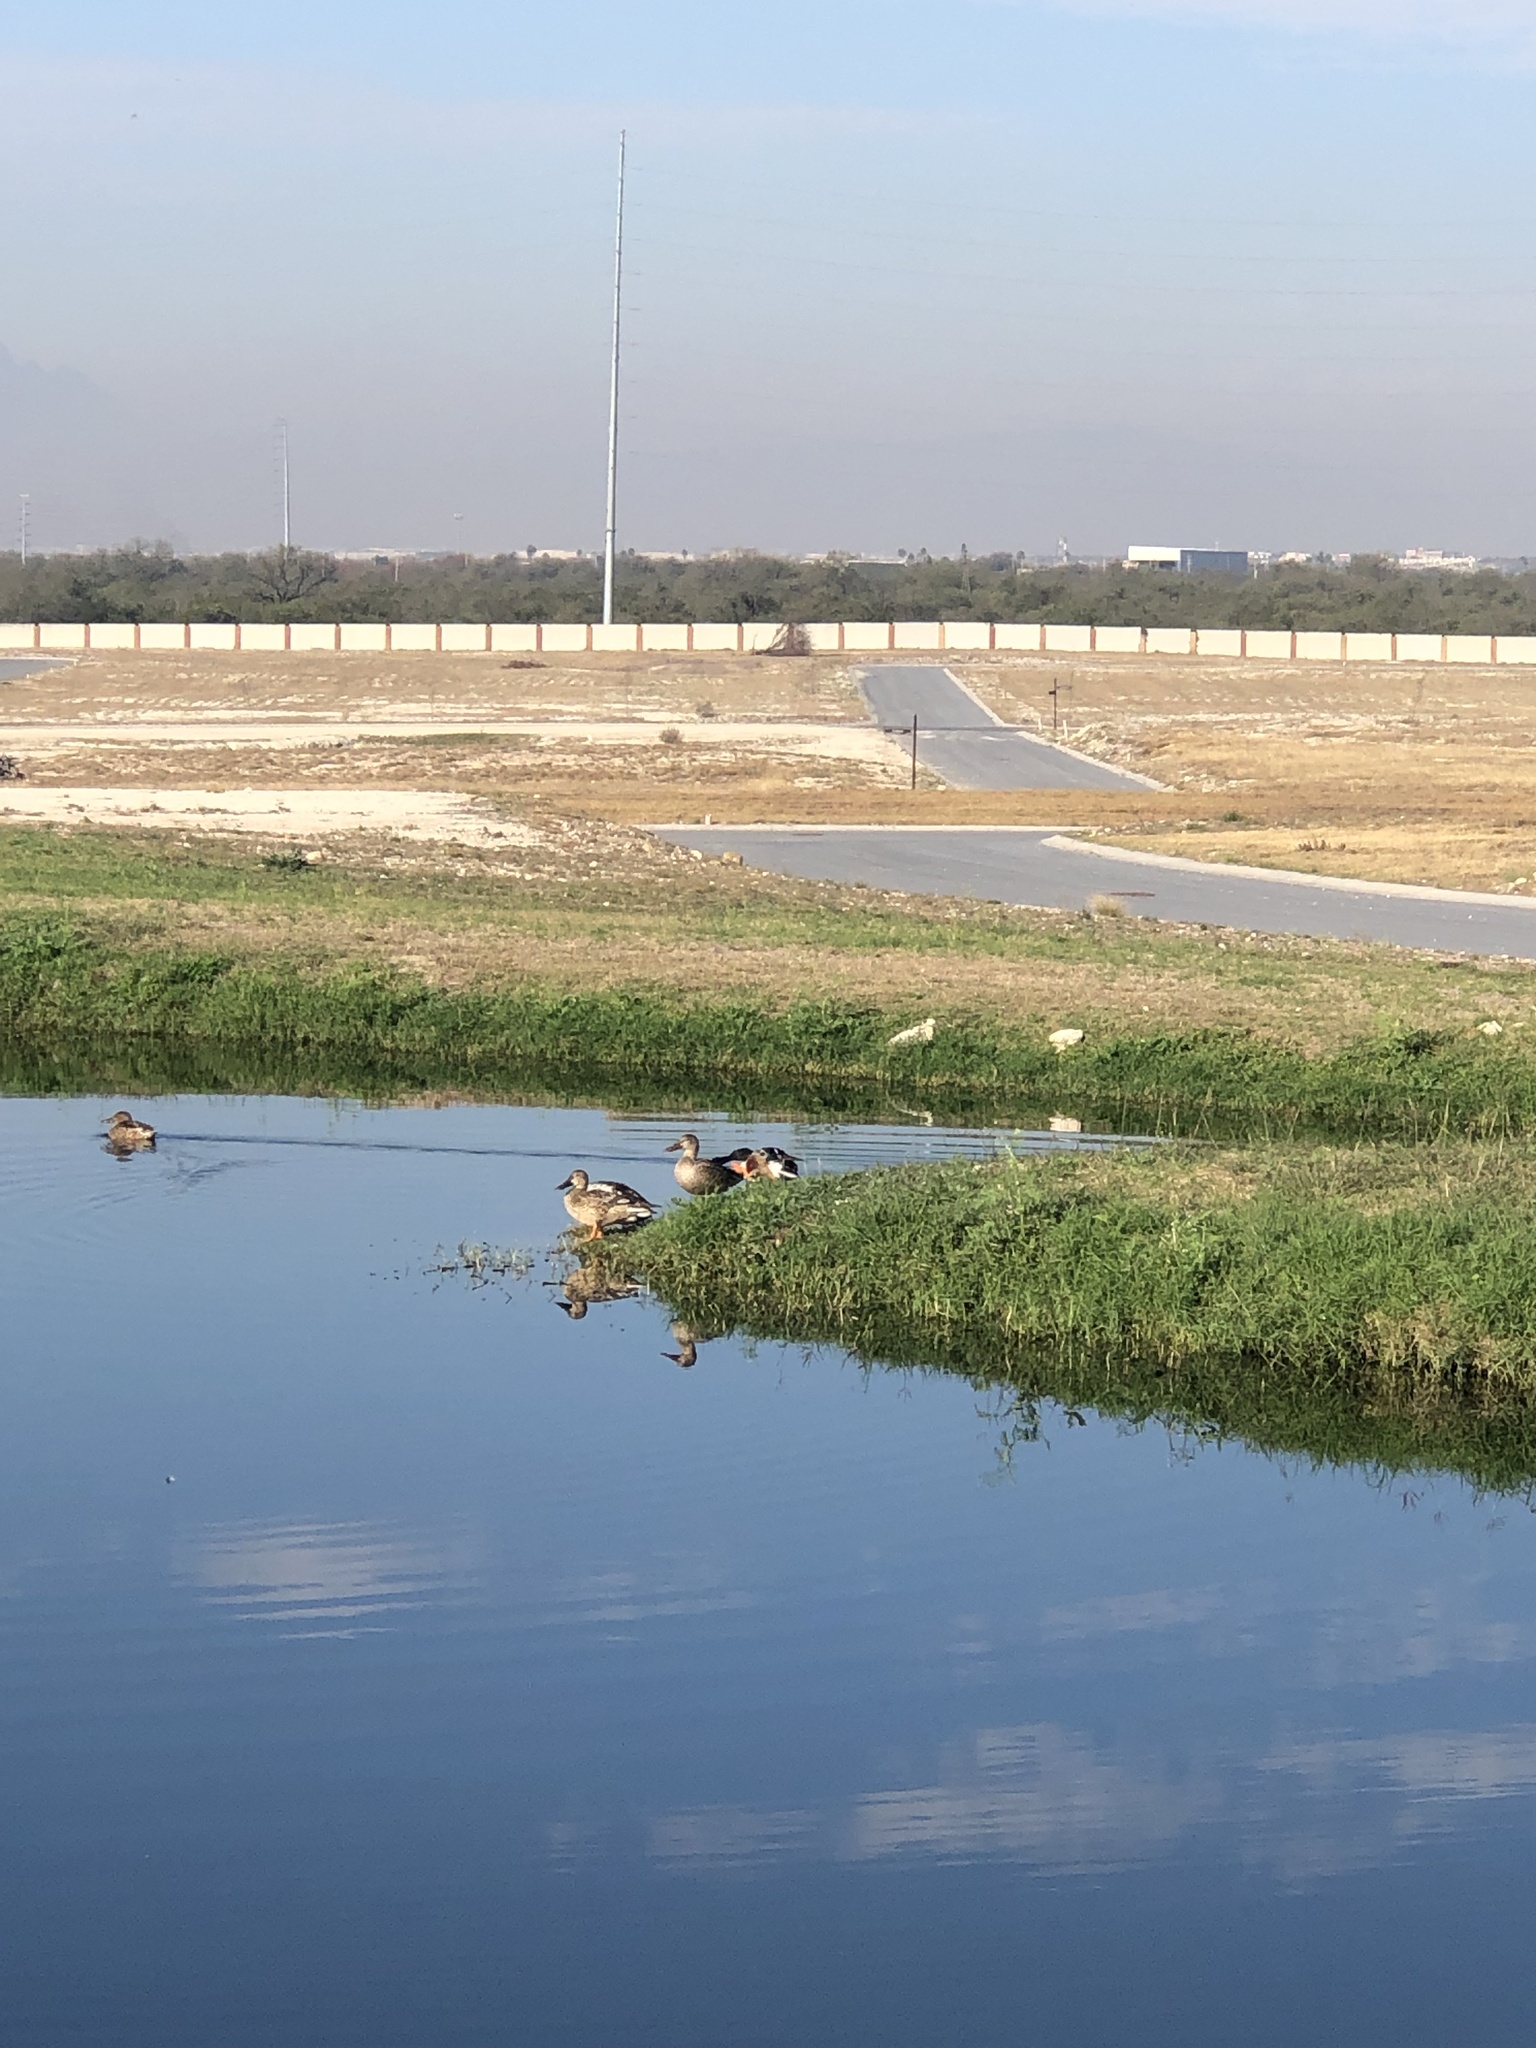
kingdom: Animalia
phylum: Chordata
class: Aves
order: Anseriformes
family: Anatidae
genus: Spatula
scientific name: Spatula clypeata
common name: Northern shoveler
